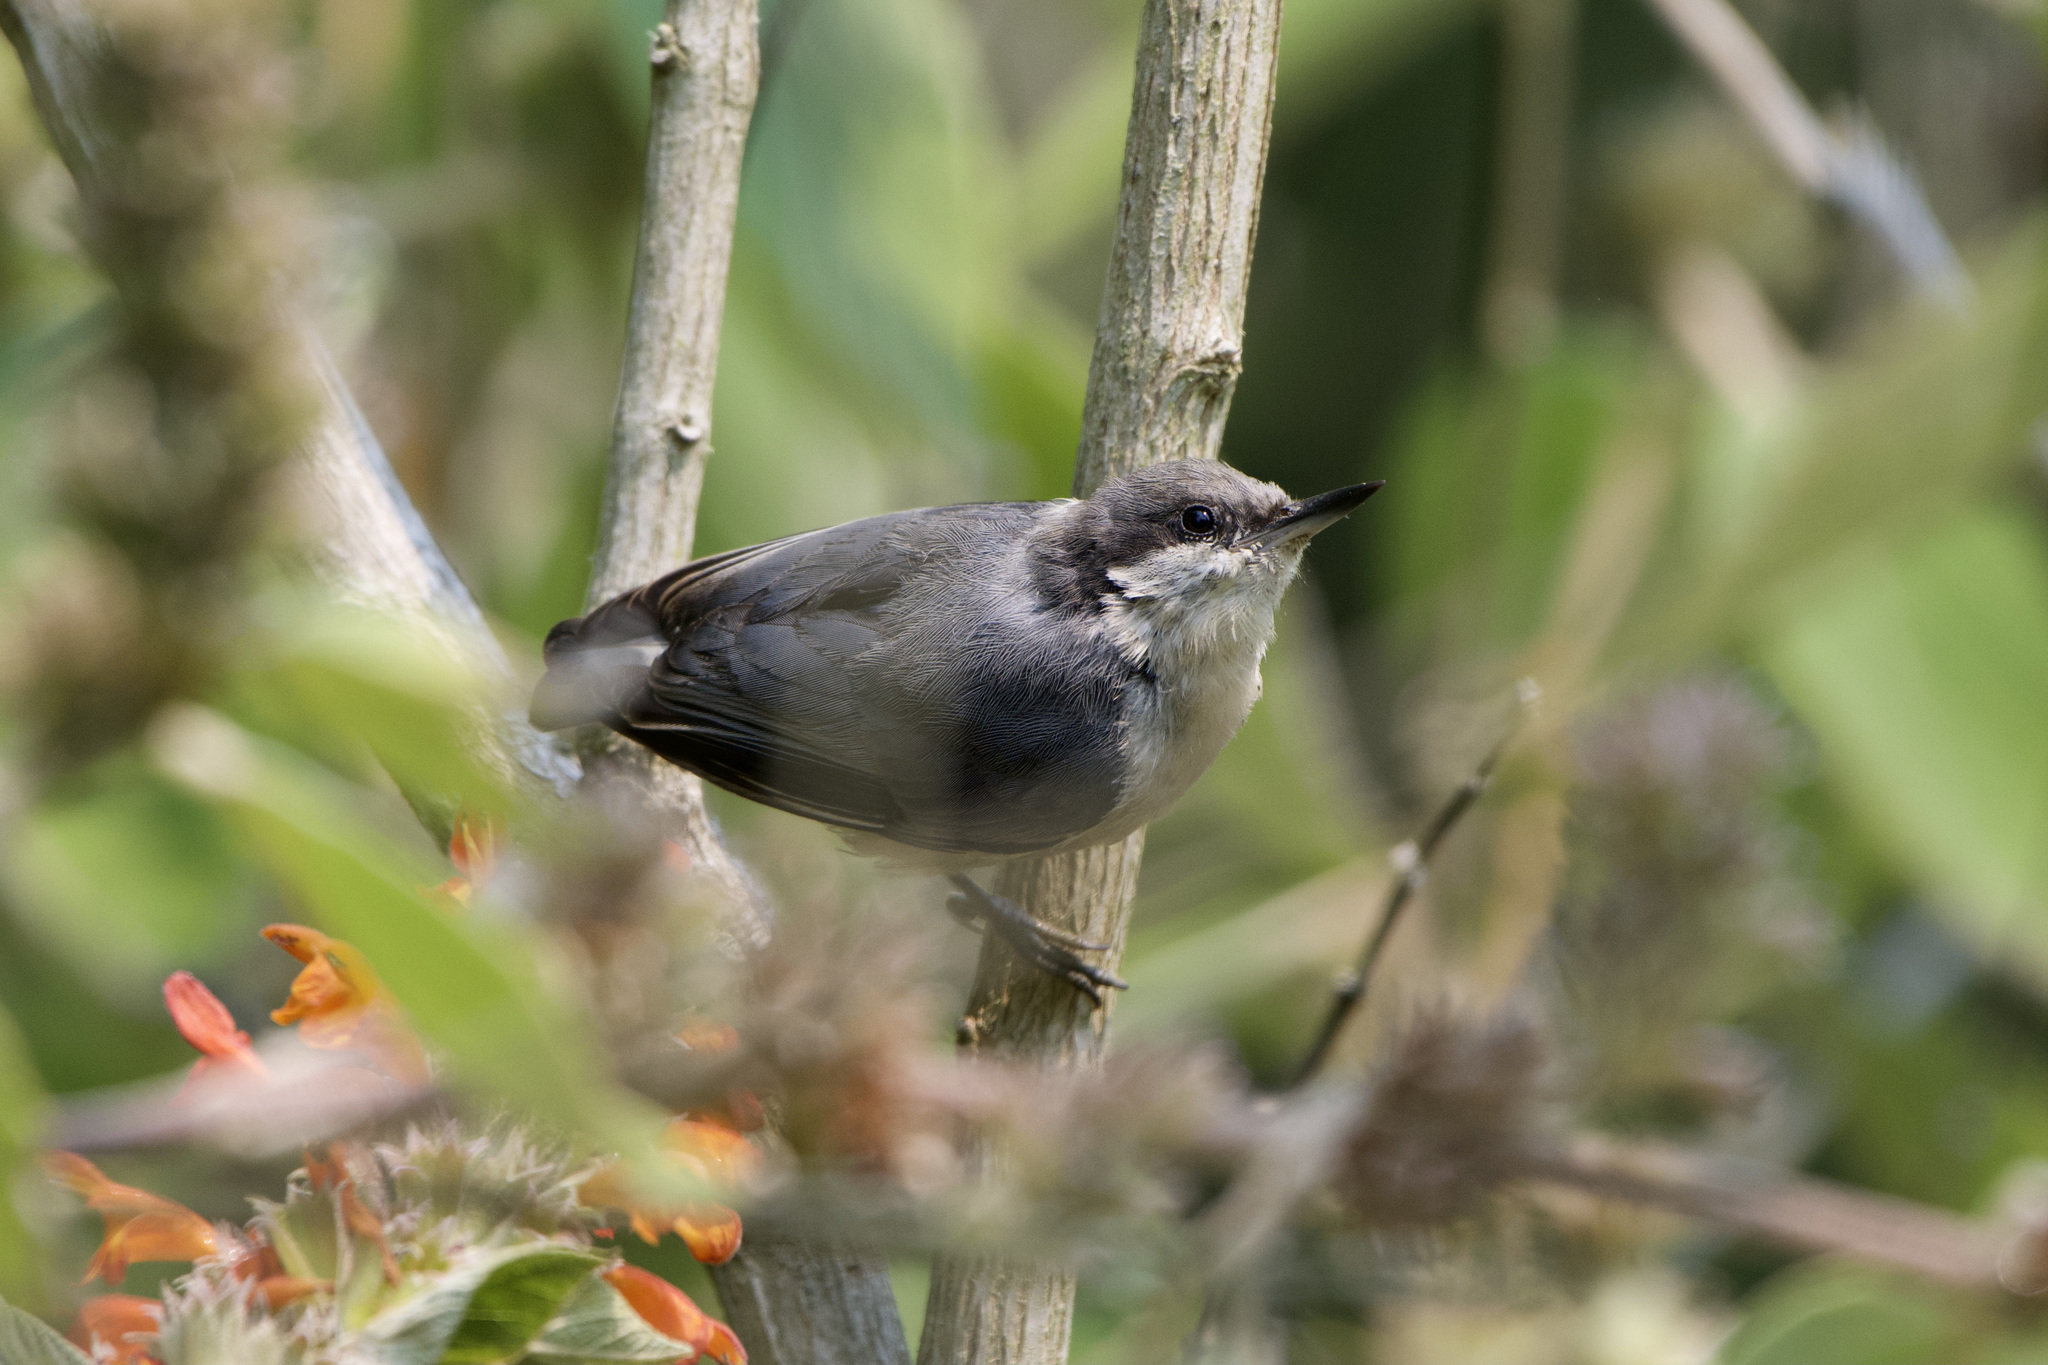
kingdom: Animalia
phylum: Chordata
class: Aves
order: Passeriformes
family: Sittidae
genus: Sitta
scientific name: Sitta pygmaea
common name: Pygmy nuthatch
